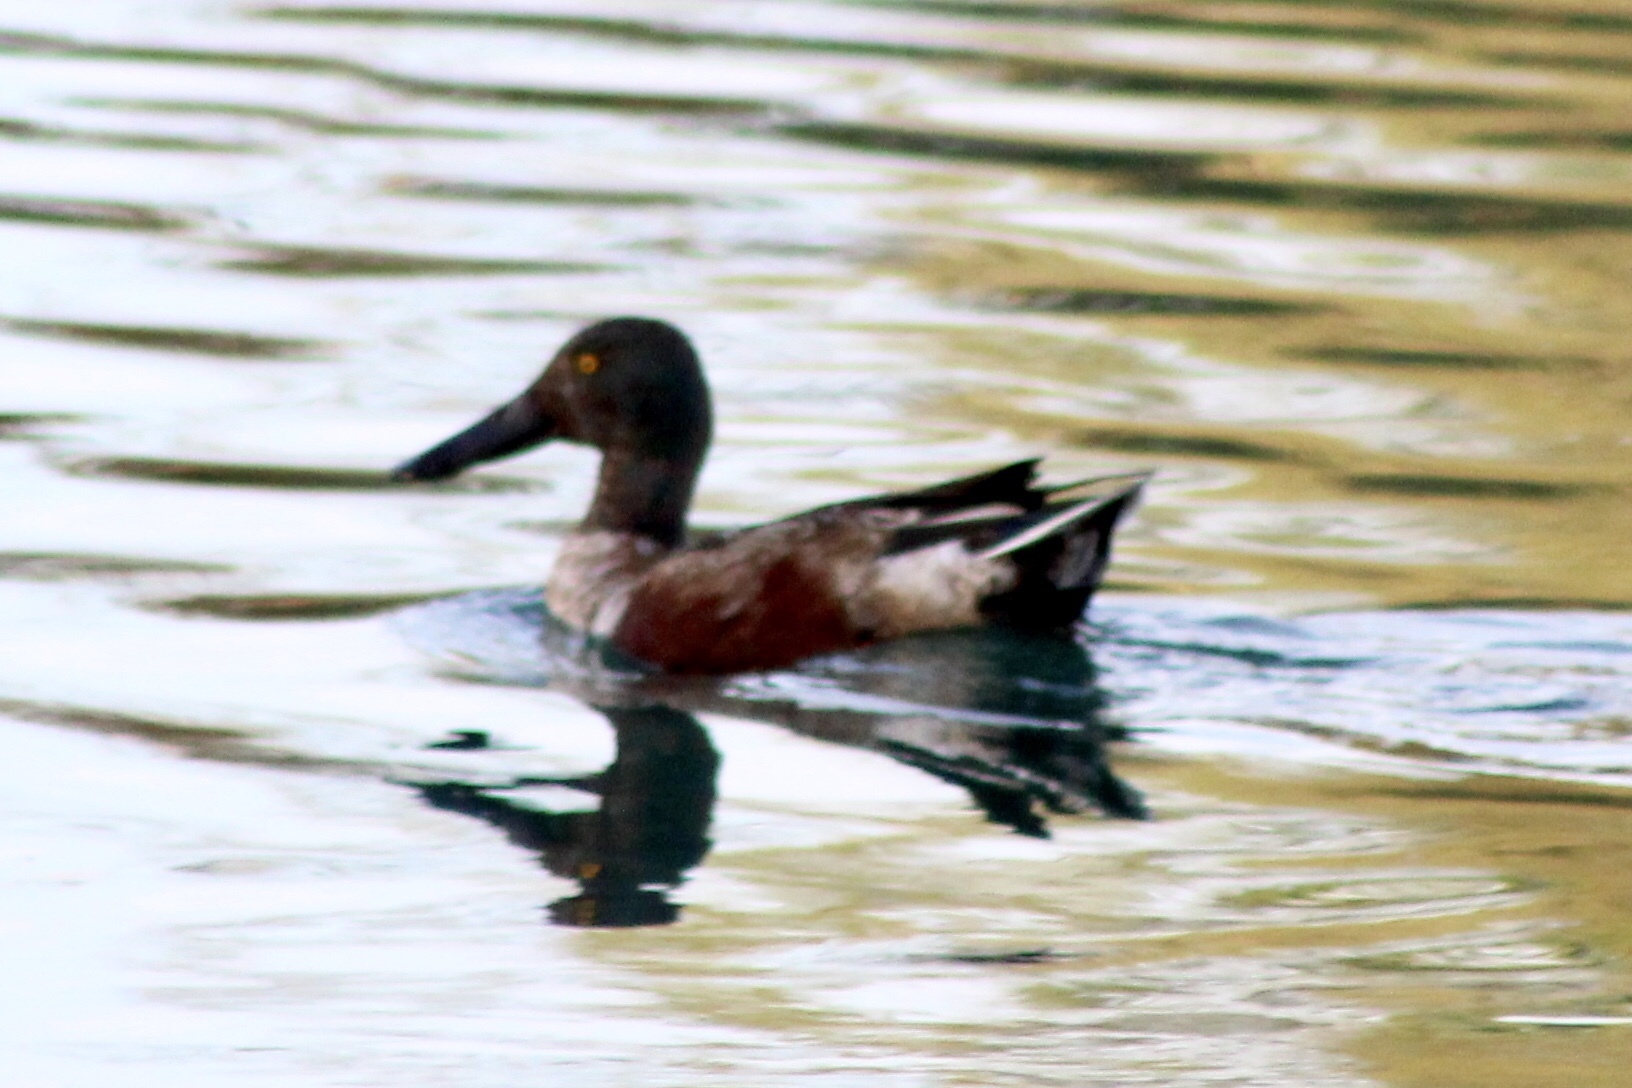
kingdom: Animalia
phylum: Chordata
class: Aves
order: Anseriformes
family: Anatidae
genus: Spatula
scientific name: Spatula clypeata
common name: Northern shoveler
